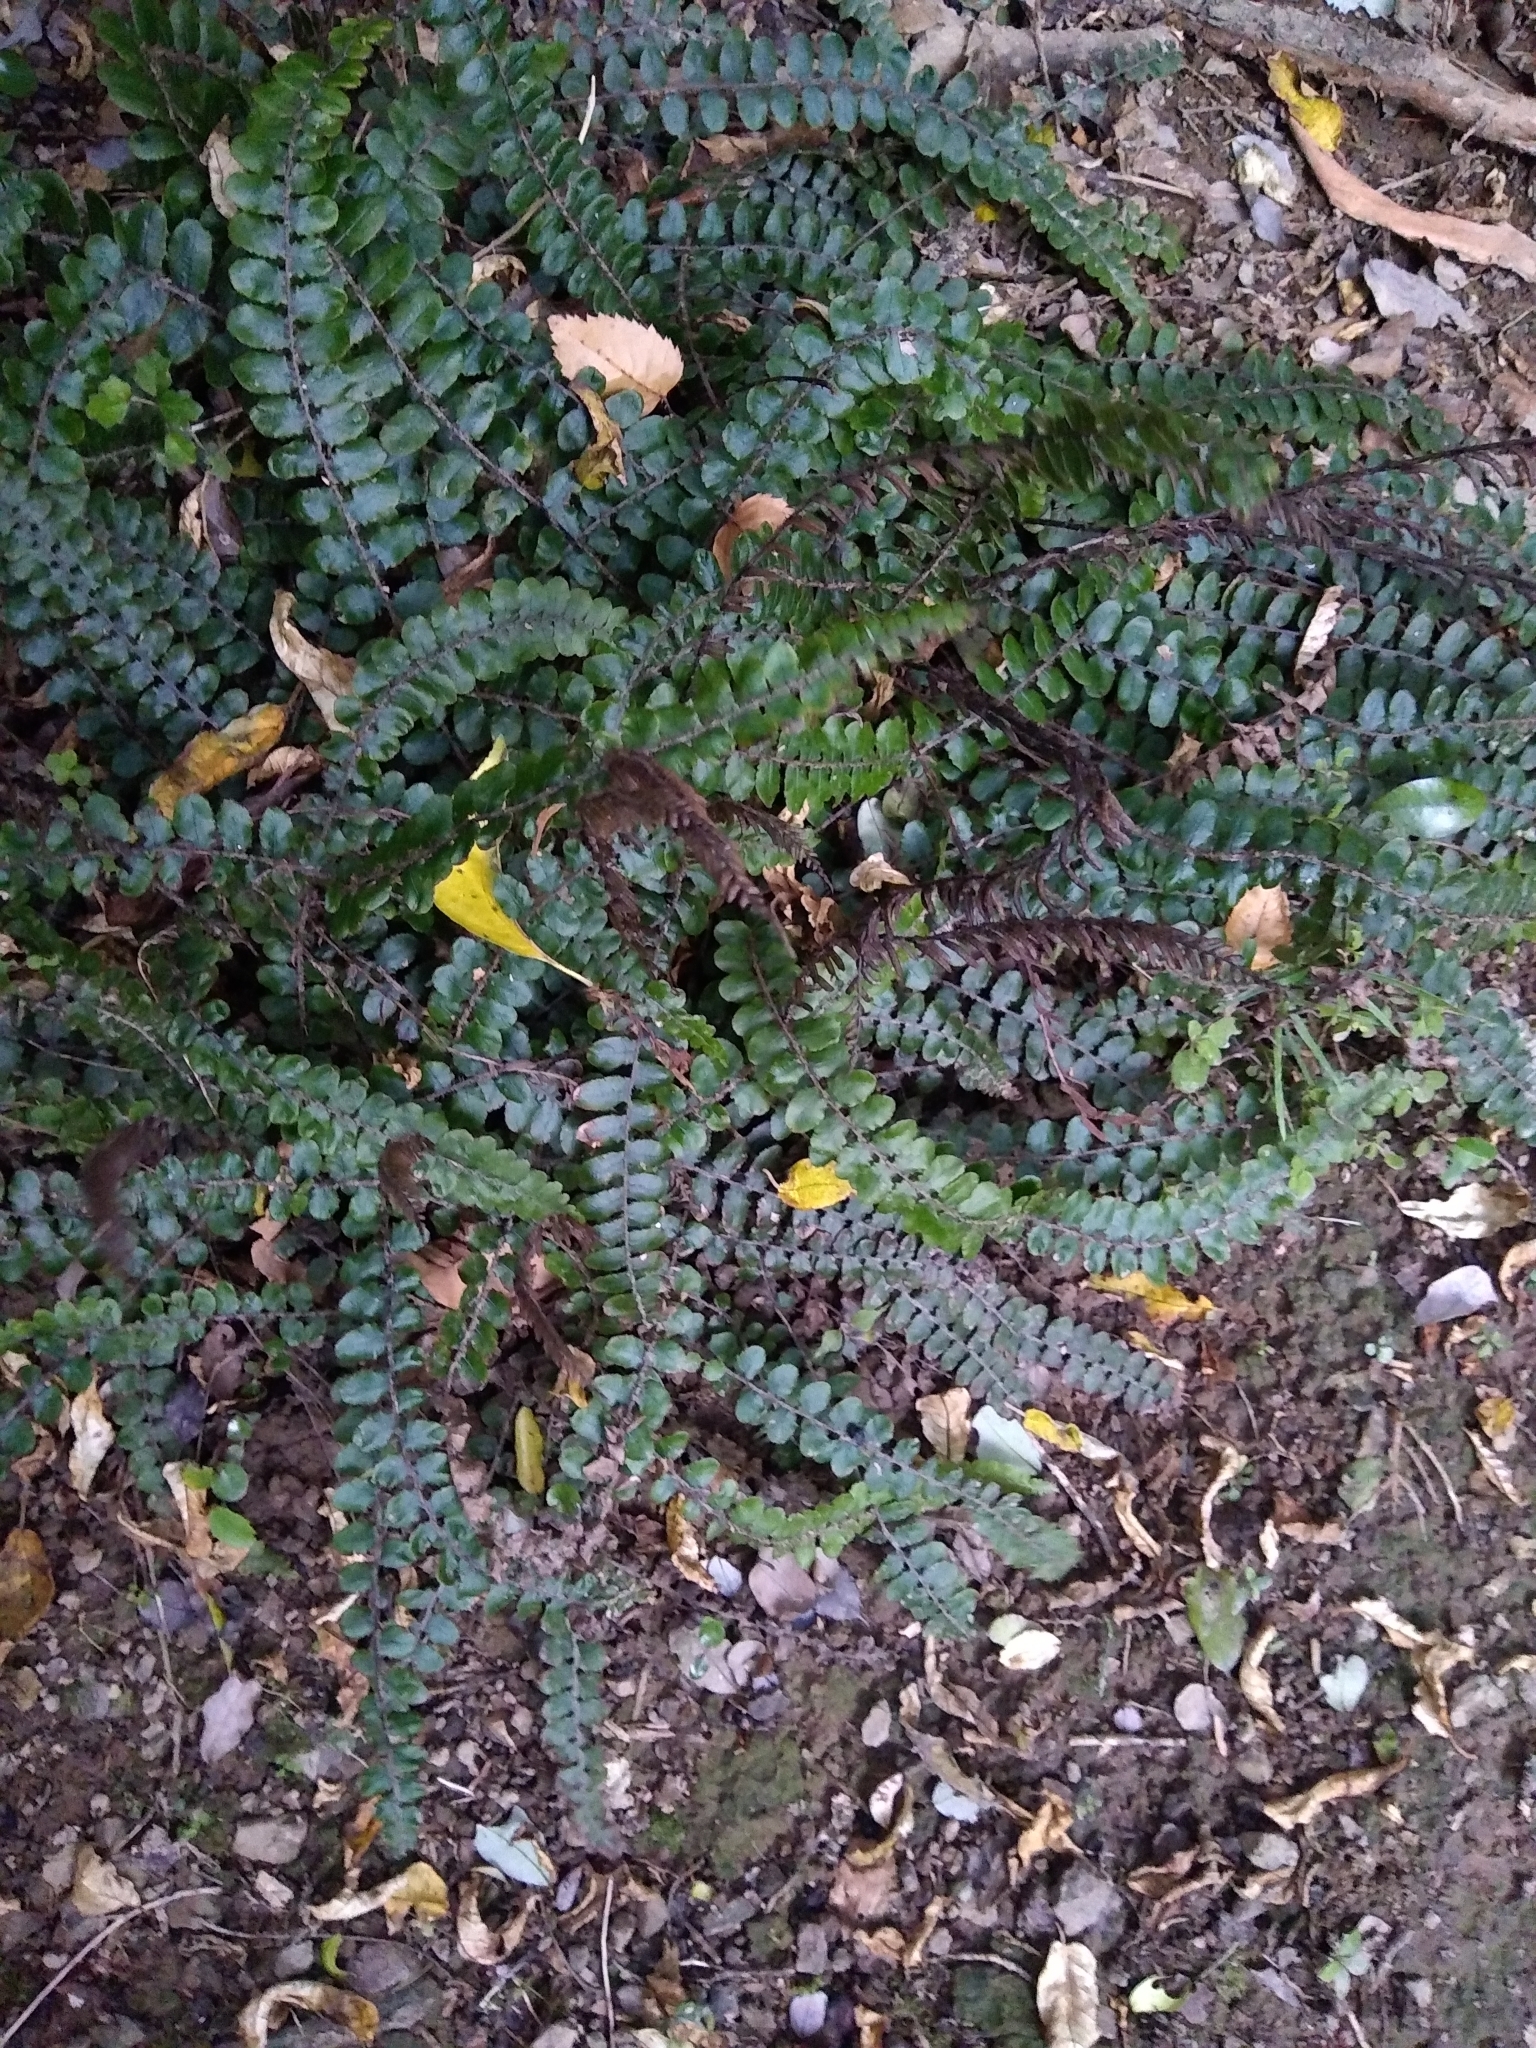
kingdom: Plantae
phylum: Tracheophyta
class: Polypodiopsida
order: Polypodiales
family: Blechnaceae
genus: Cranfillia
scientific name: Cranfillia fluviatilis
